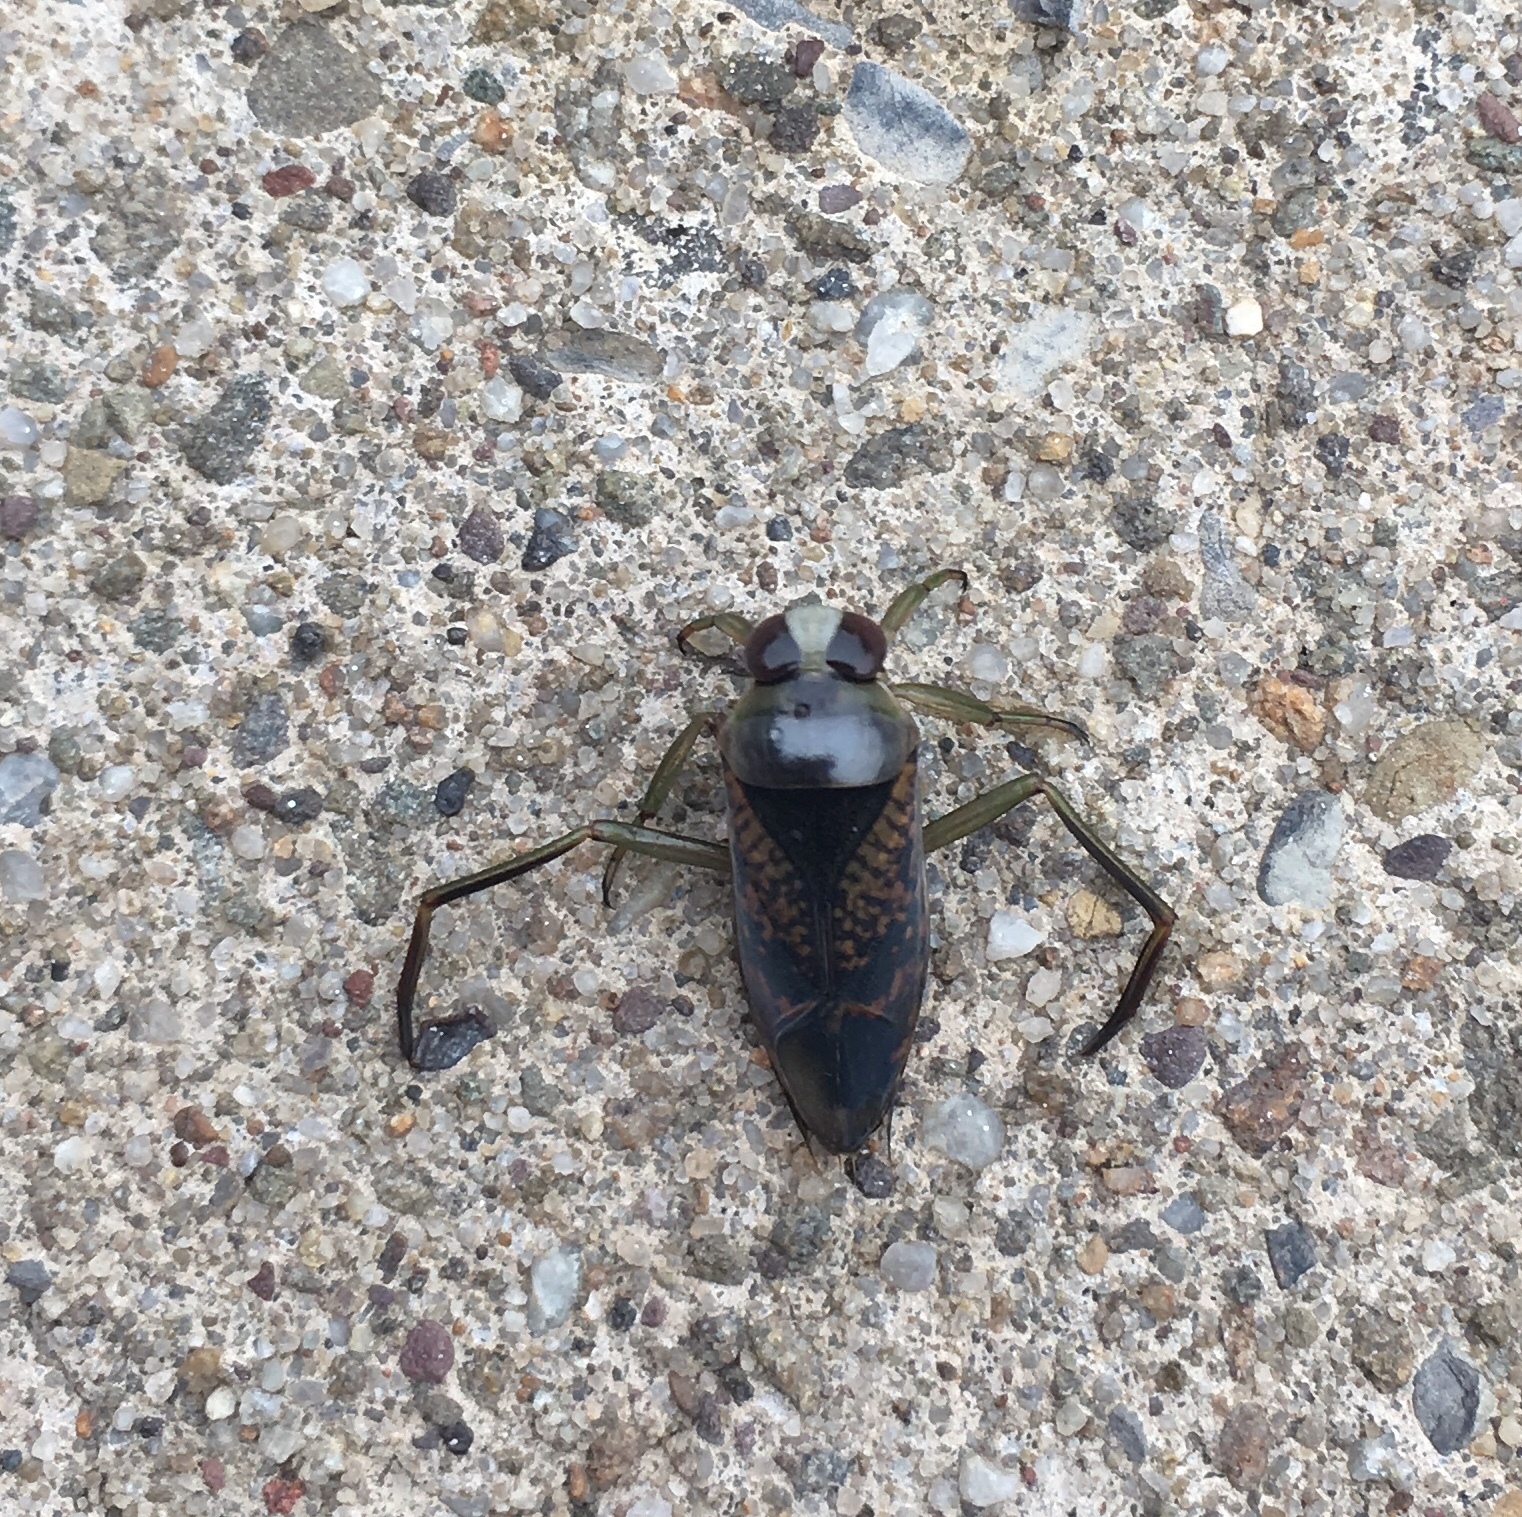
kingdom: Animalia
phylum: Arthropoda
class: Insecta
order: Hemiptera
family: Notonectidae
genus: Notonecta
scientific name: Notonecta irrorata
